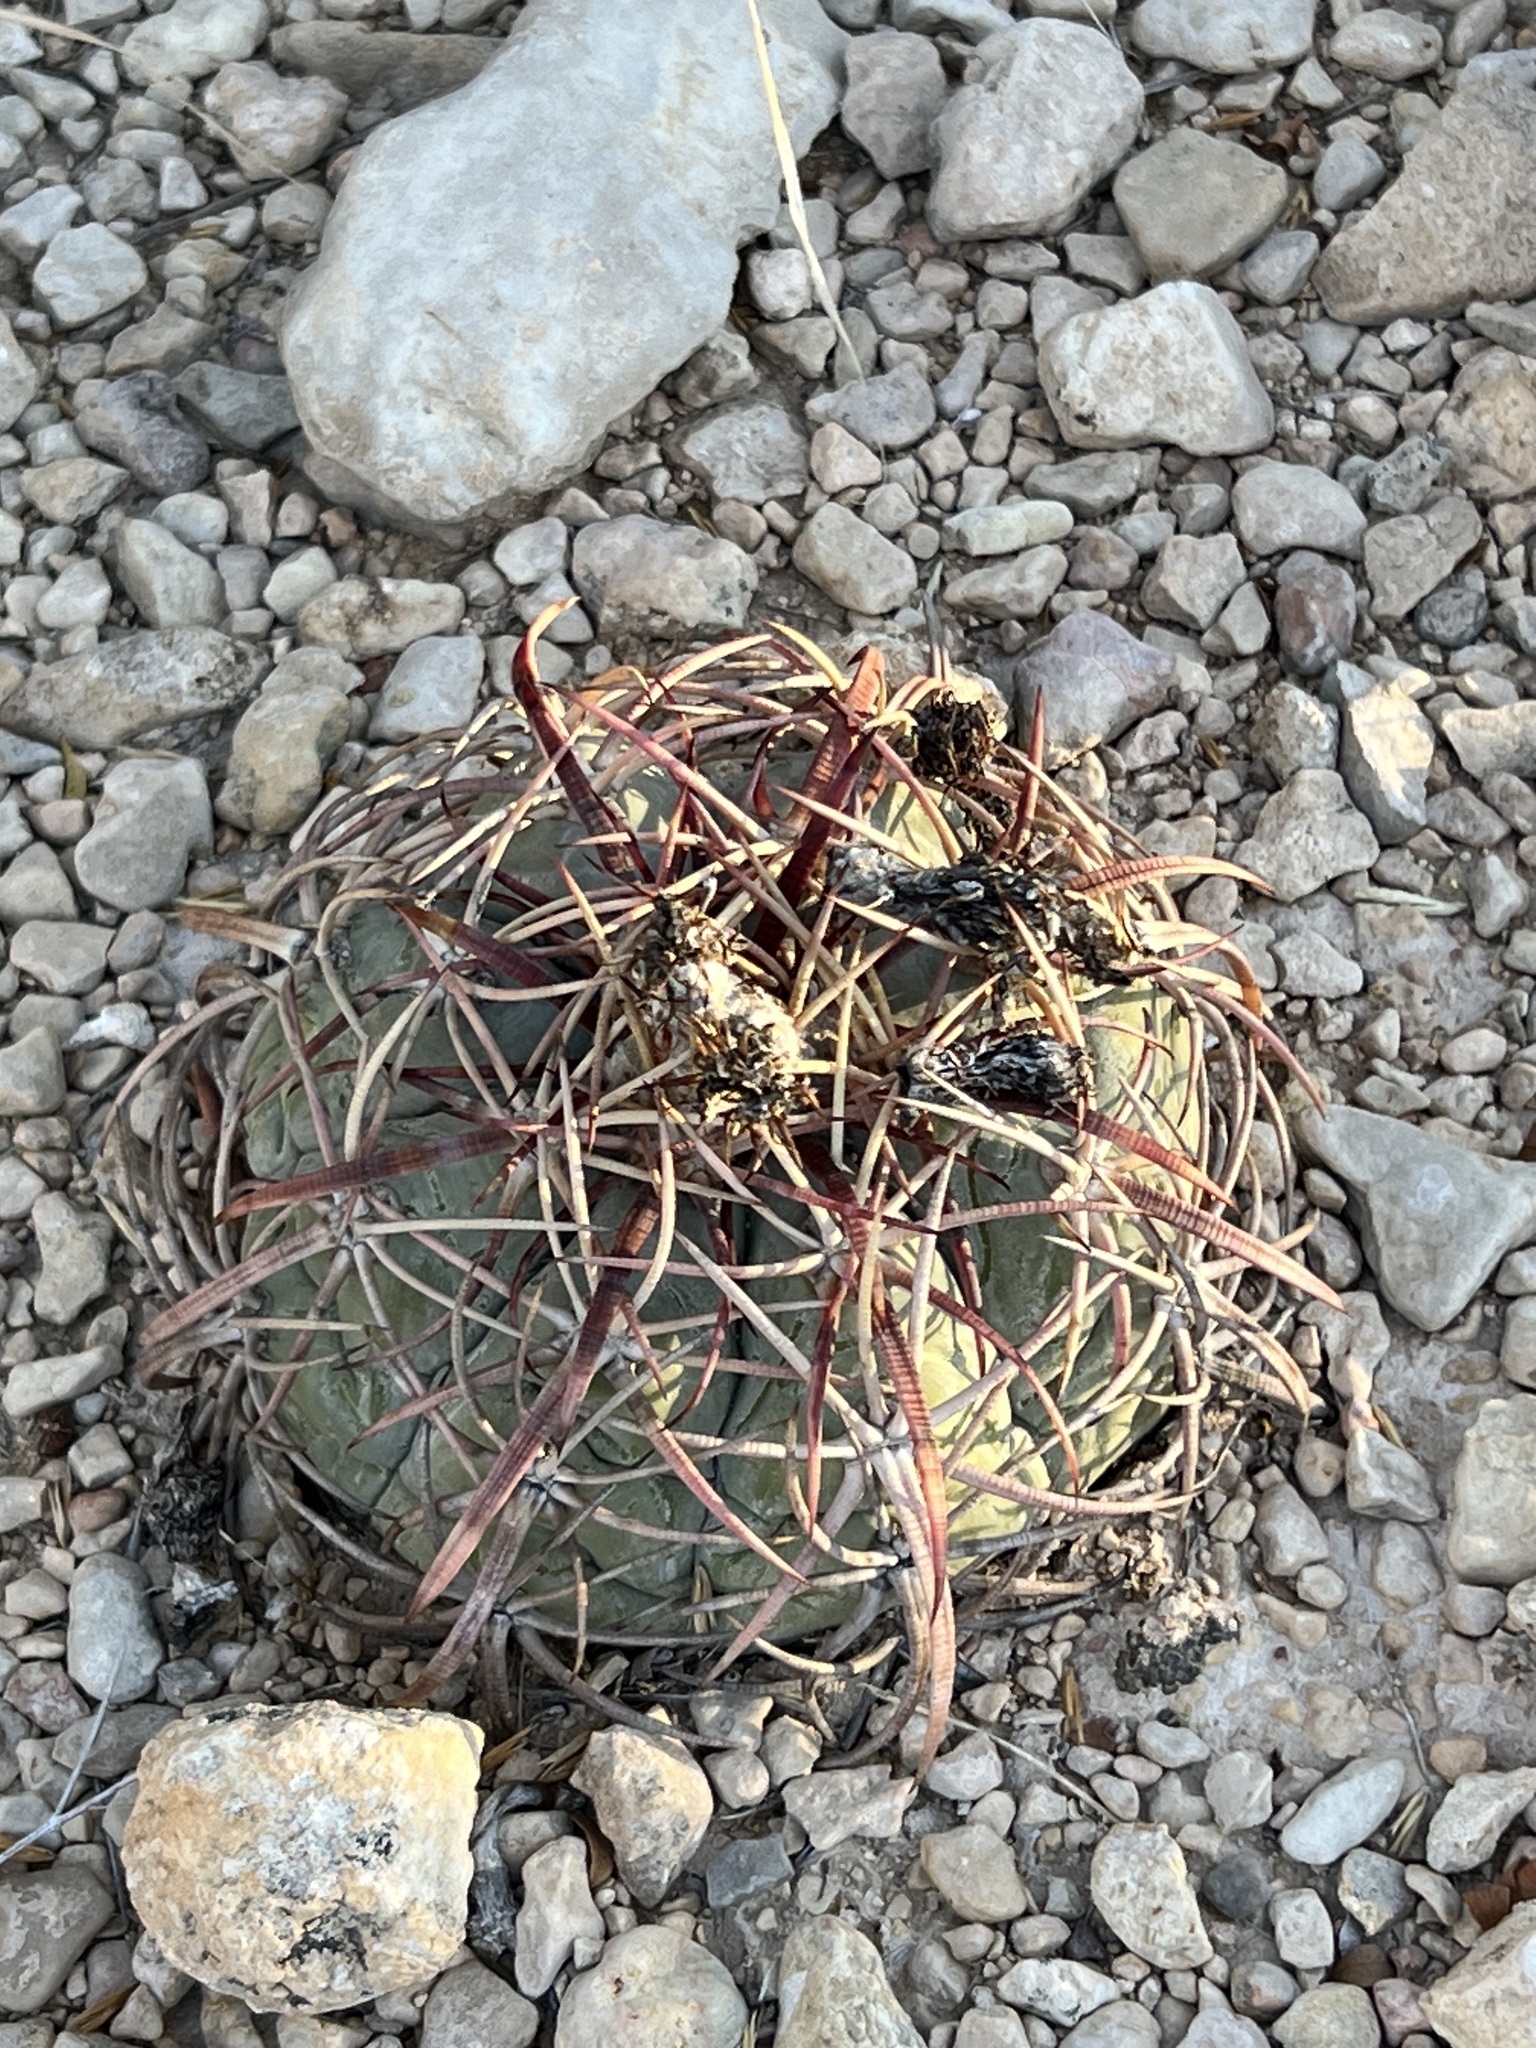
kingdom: Plantae
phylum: Tracheophyta
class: Magnoliopsida
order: Caryophyllales
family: Cactaceae
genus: Echinocactus
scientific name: Echinocactus horizonthalonius
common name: Devilshead
